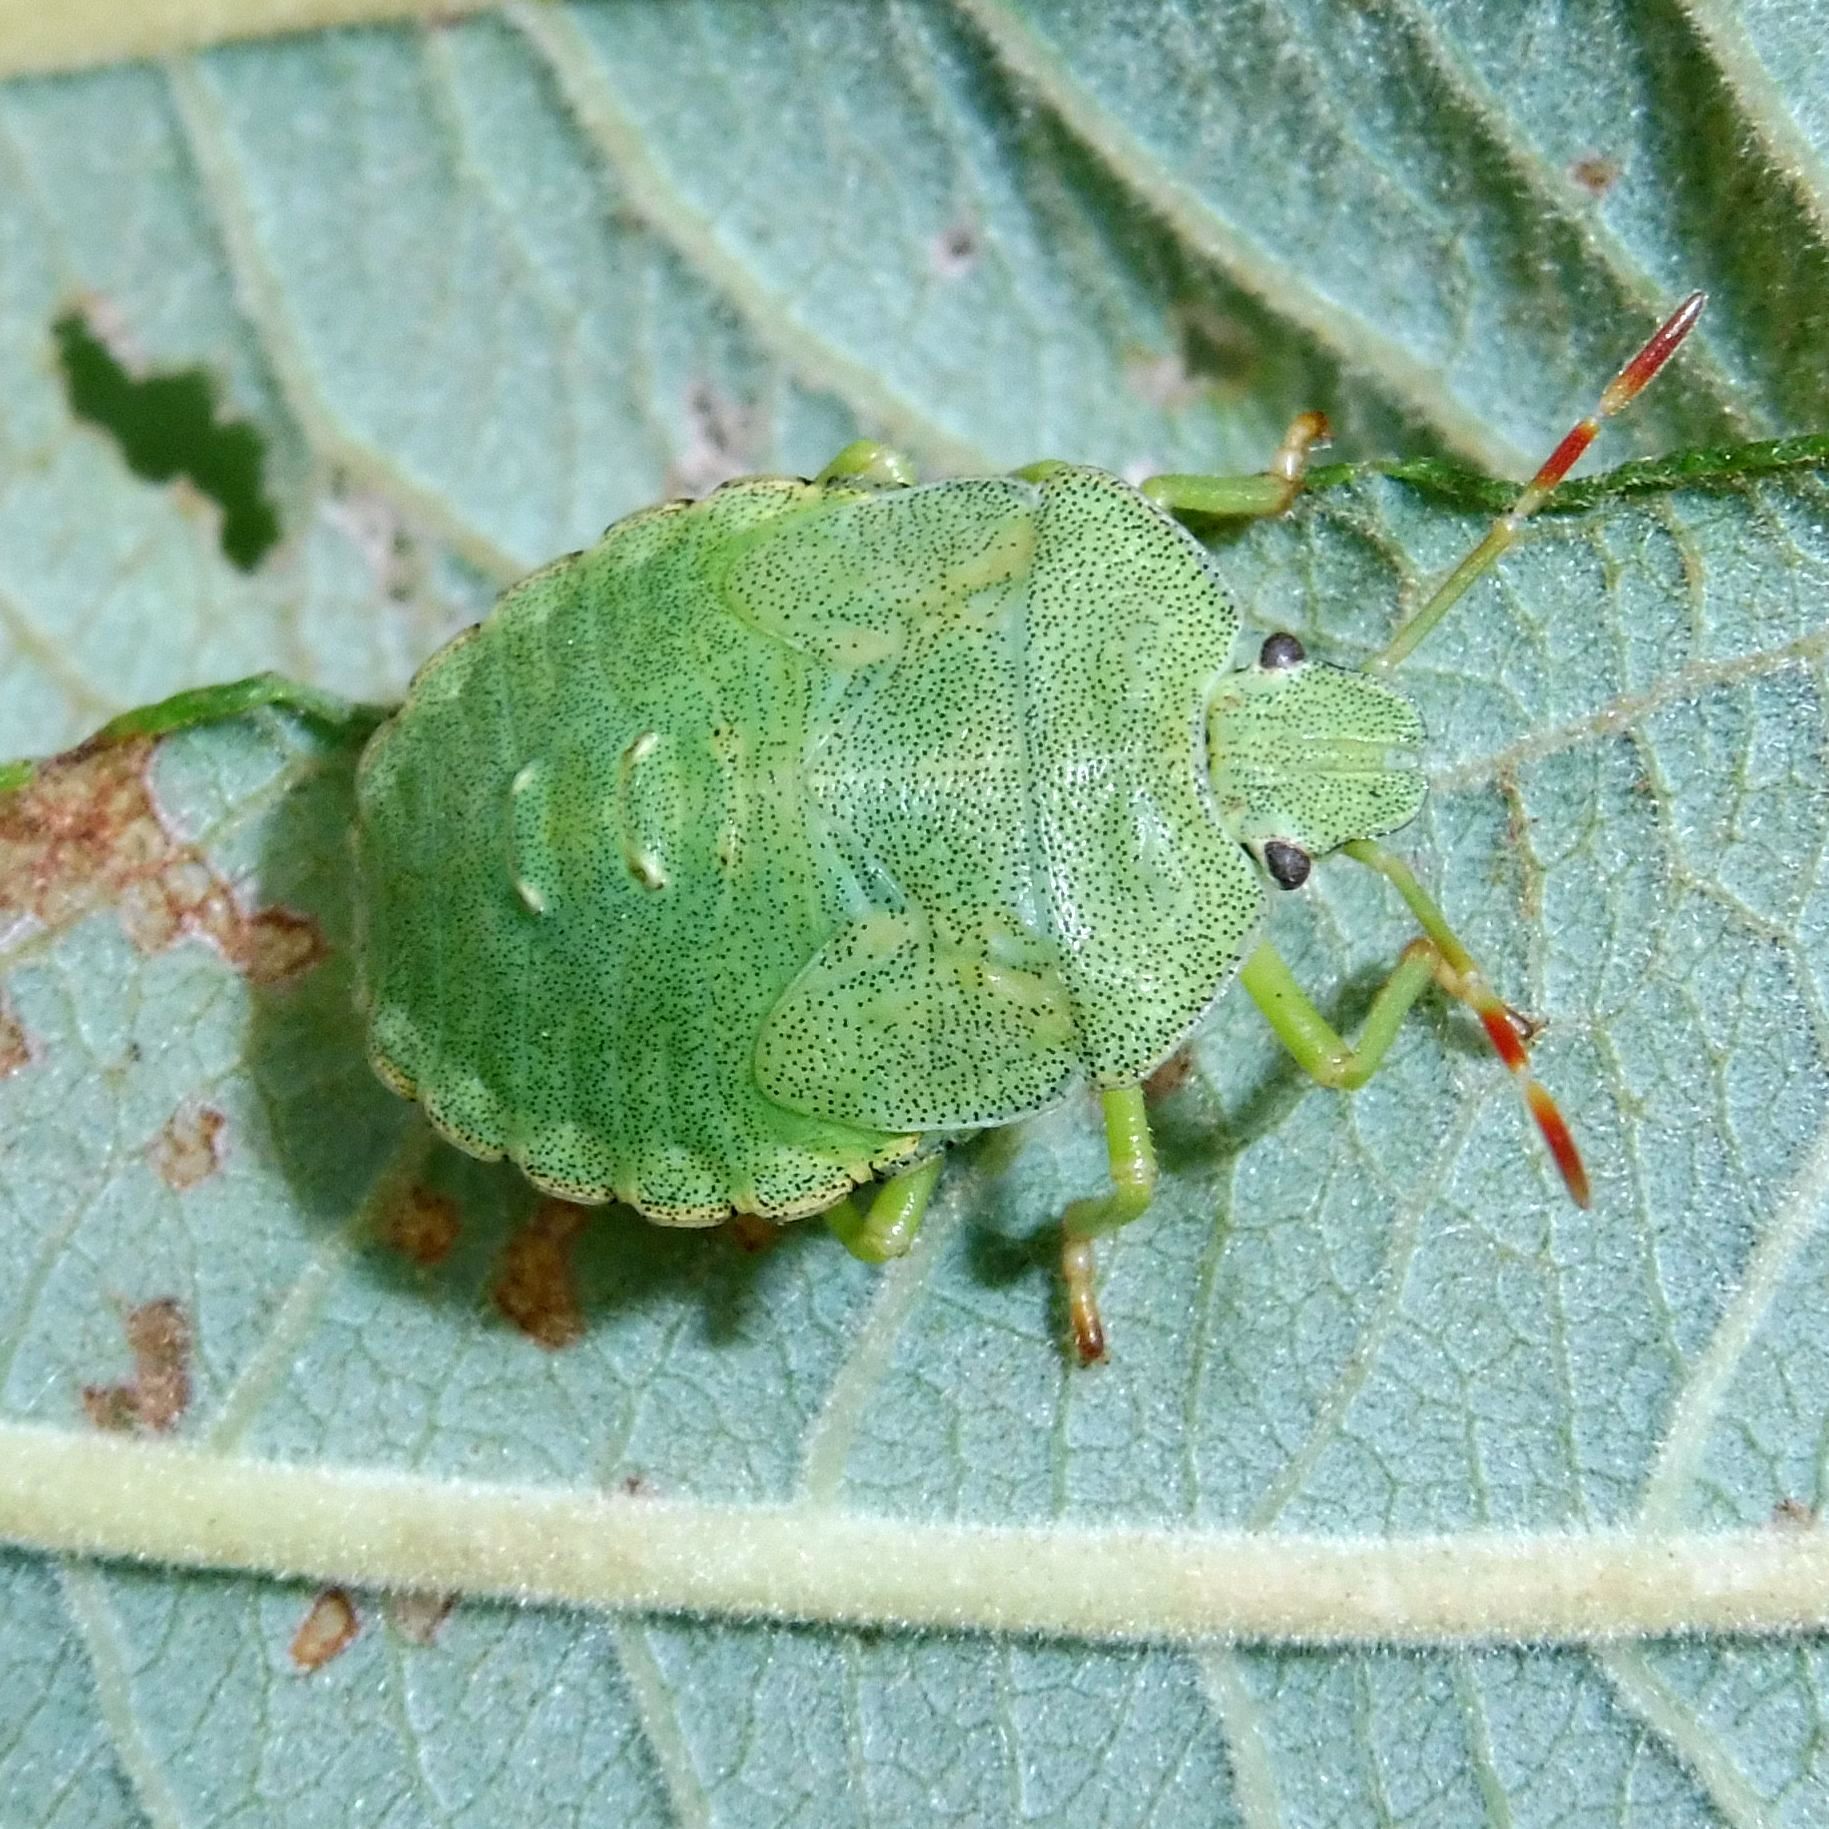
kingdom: Animalia
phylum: Arthropoda
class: Insecta
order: Hemiptera
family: Pentatomidae
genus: Palomena
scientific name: Palomena prasina
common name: Green shieldbug
